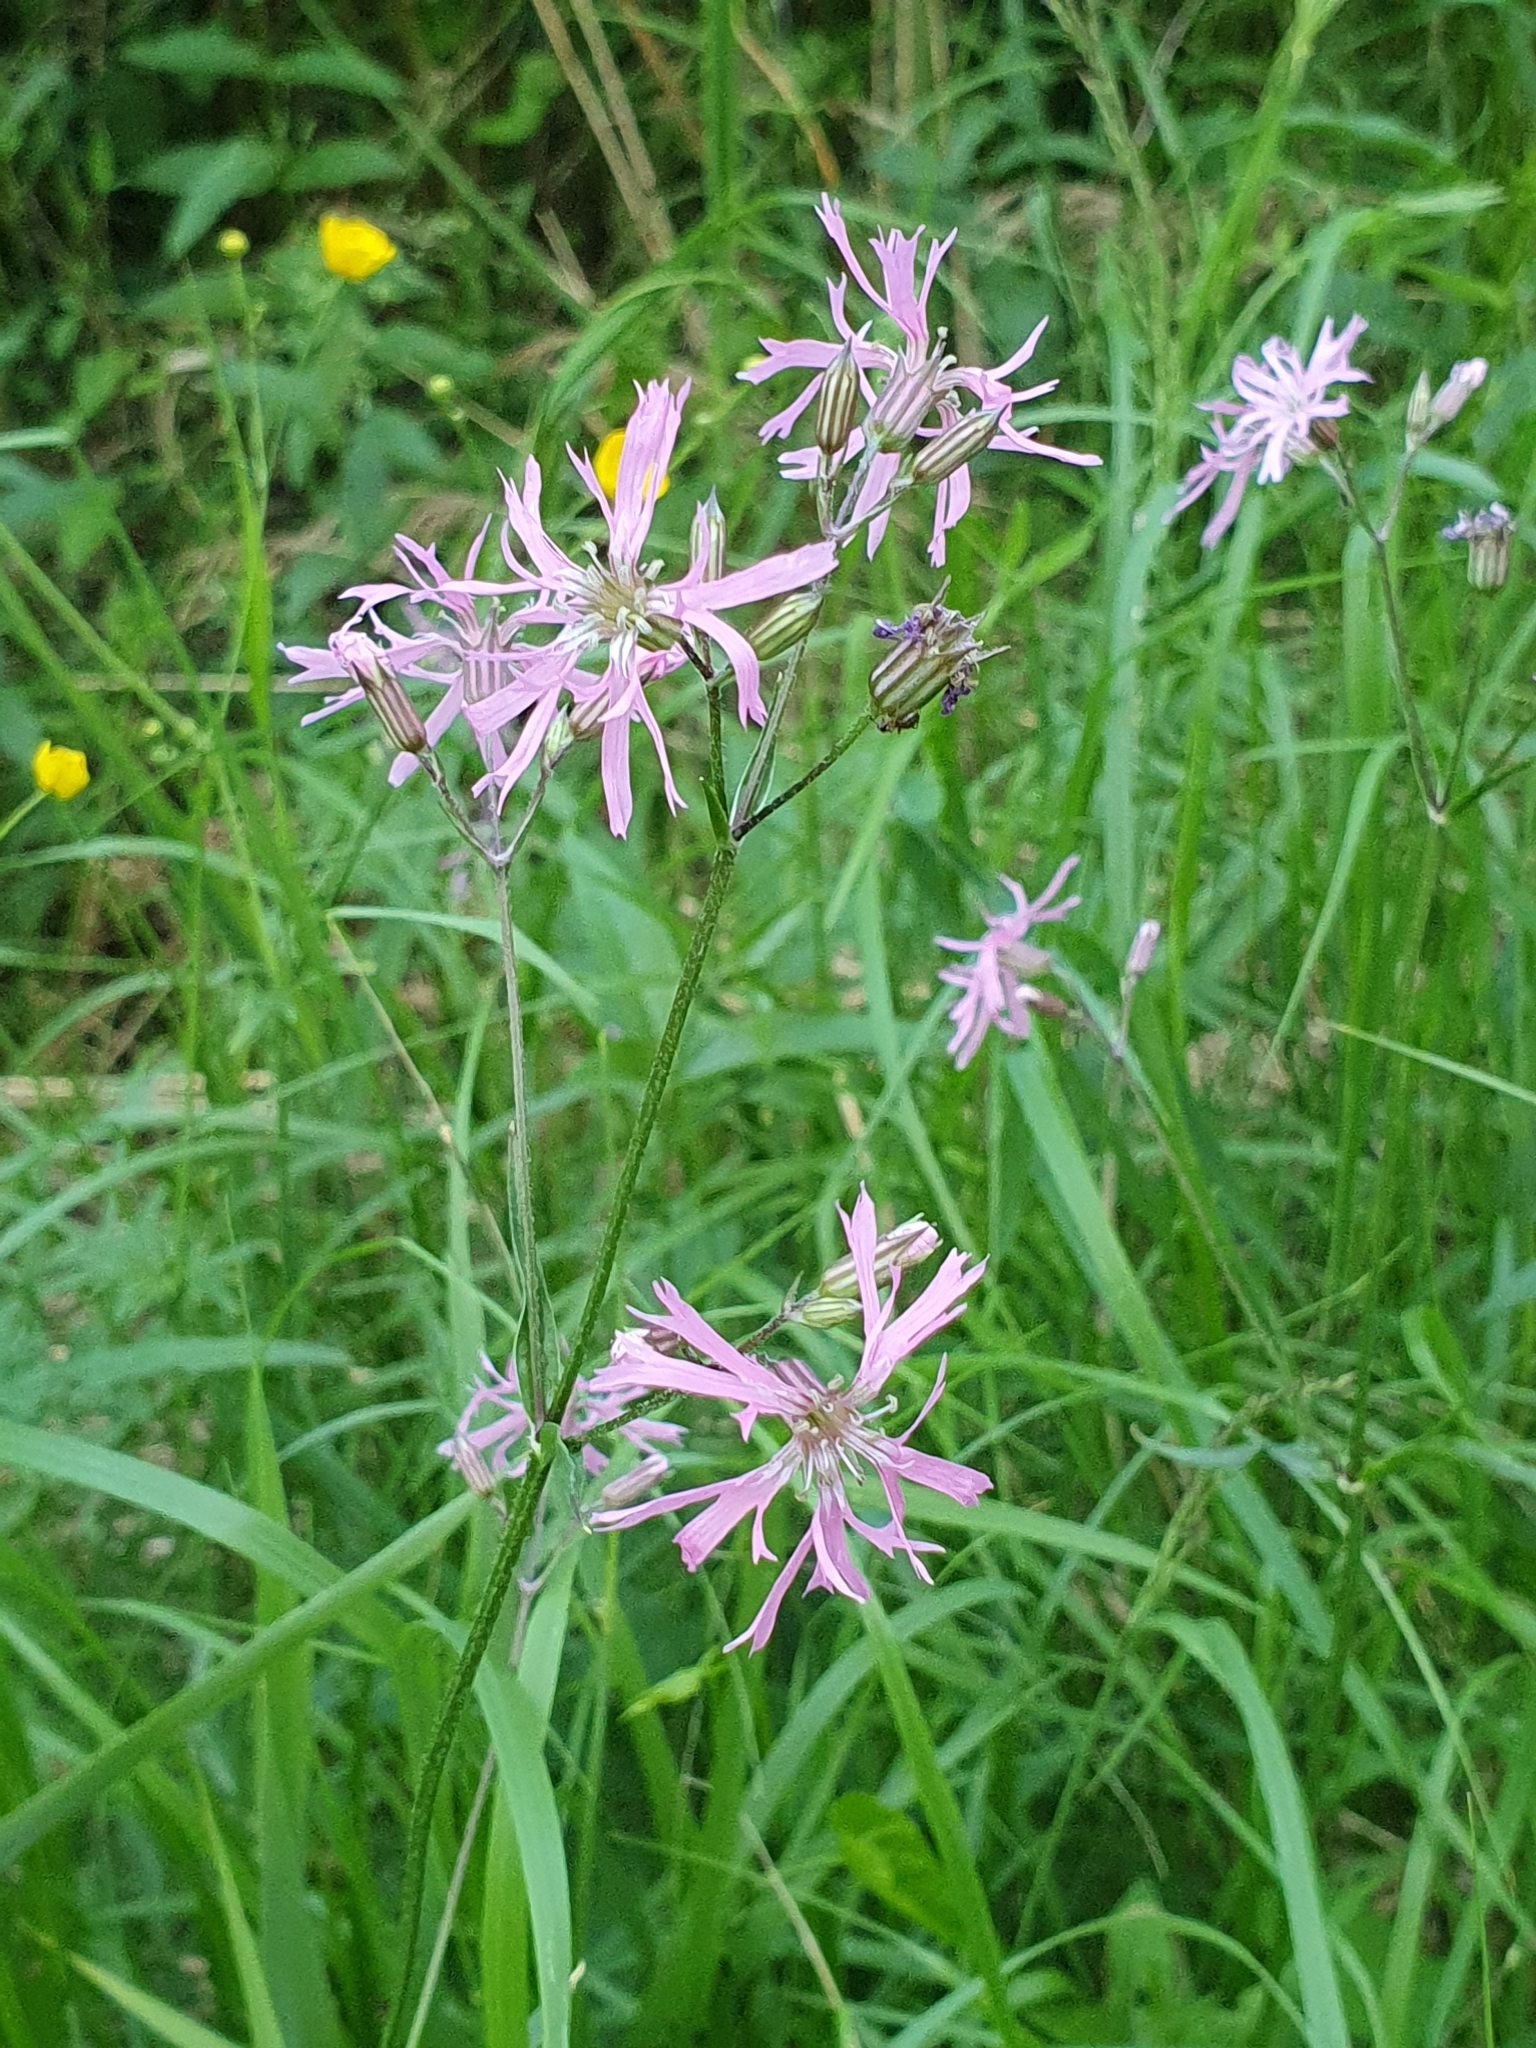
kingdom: Plantae
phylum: Tracheophyta
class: Magnoliopsida
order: Caryophyllales
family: Caryophyllaceae
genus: Silene
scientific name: Silene flos-cuculi
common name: Ragged-robin
